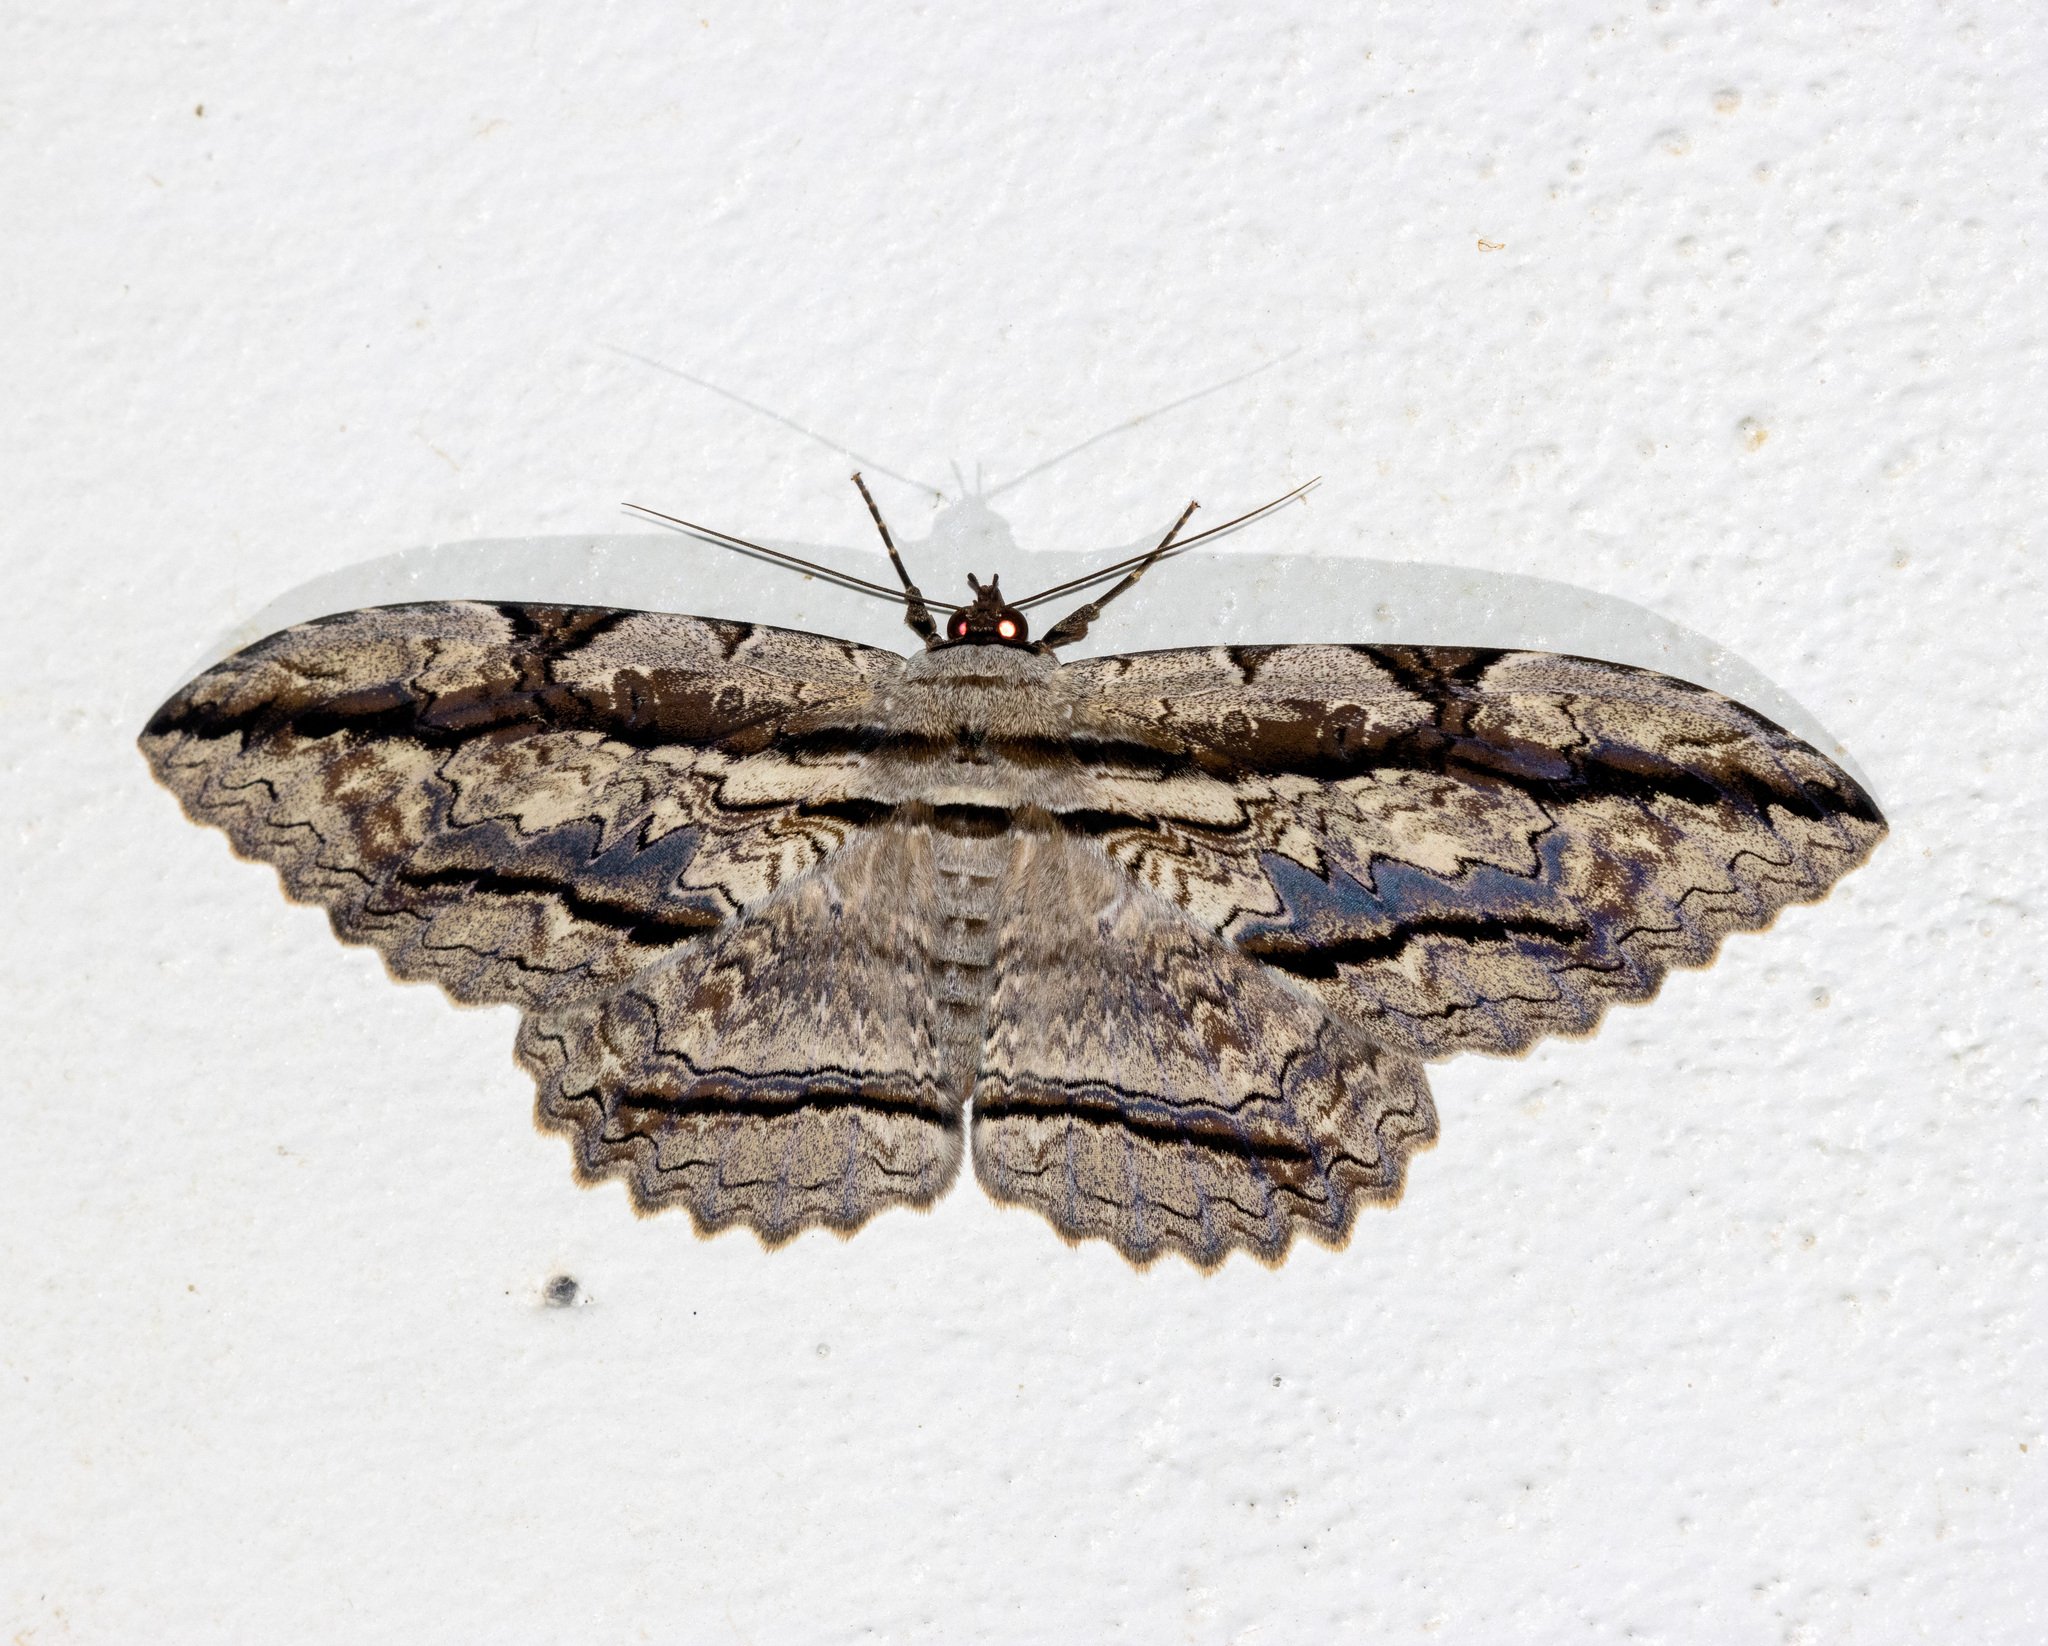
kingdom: Animalia
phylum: Arthropoda
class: Insecta
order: Lepidoptera
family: Erebidae
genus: Thysania
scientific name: Thysania zenobia
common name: Owl moth
